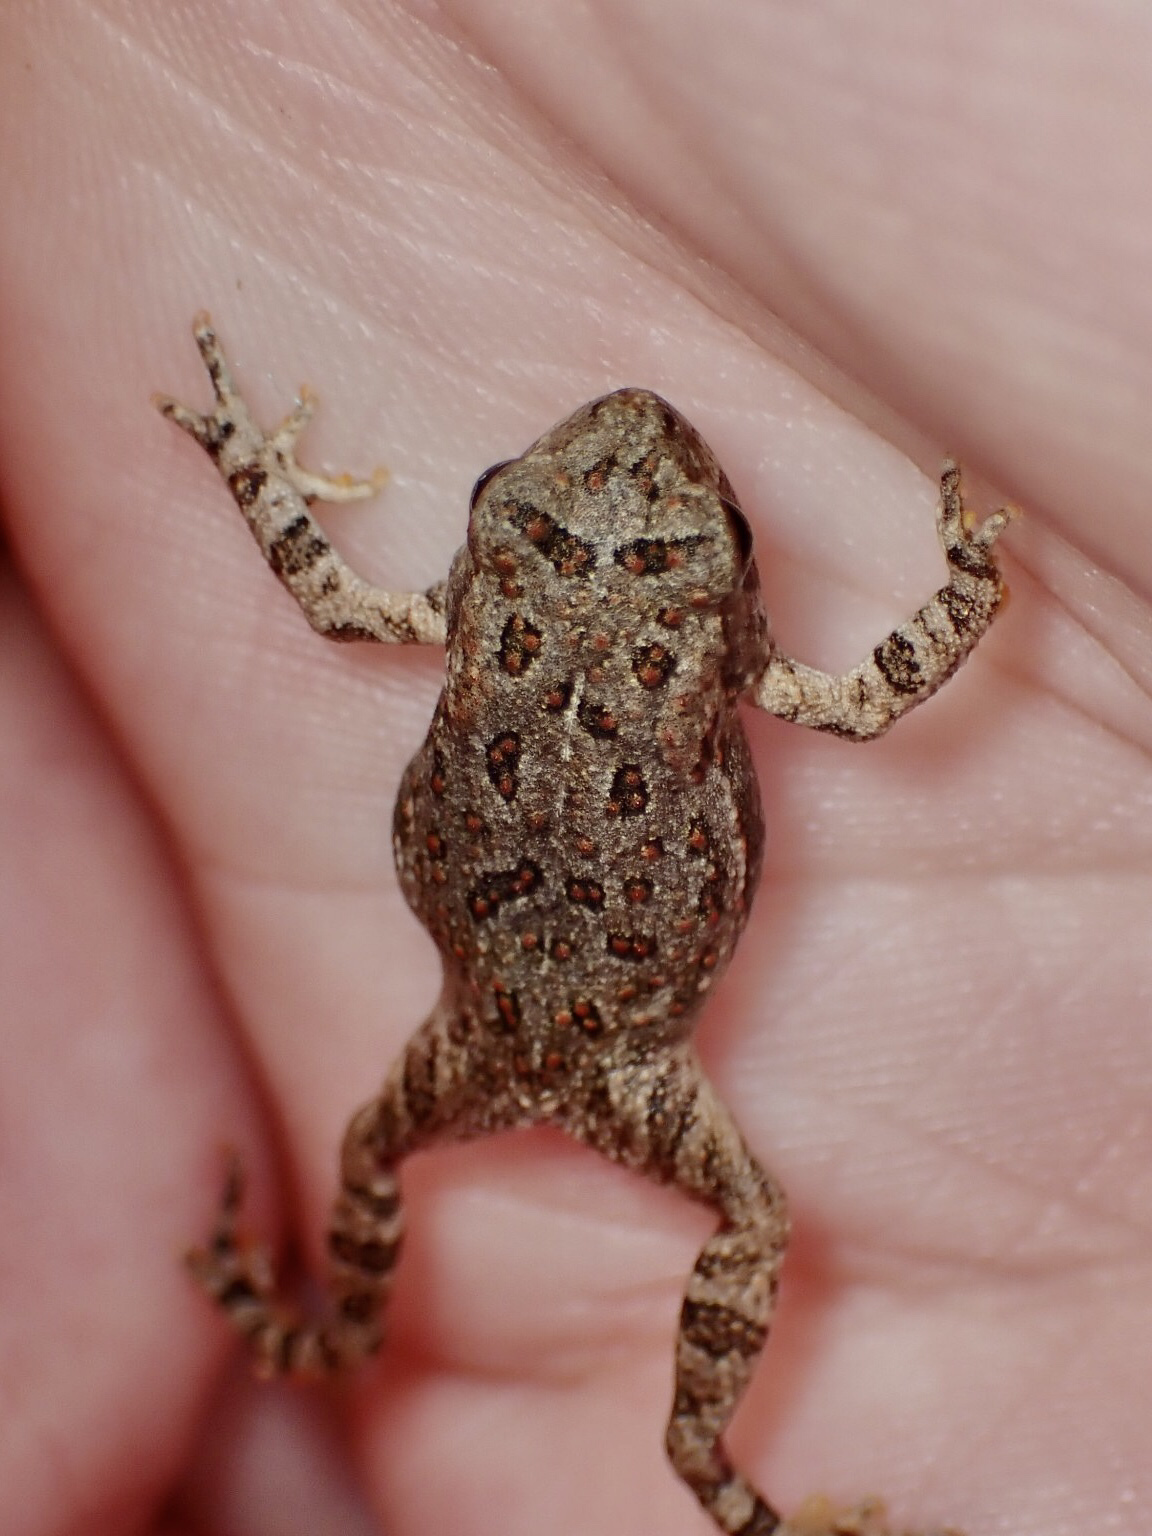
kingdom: Animalia
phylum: Chordata
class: Amphibia
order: Anura
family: Bufonidae
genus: Anaxyrus
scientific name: Anaxyrus fowleri
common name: Fowler's toad
